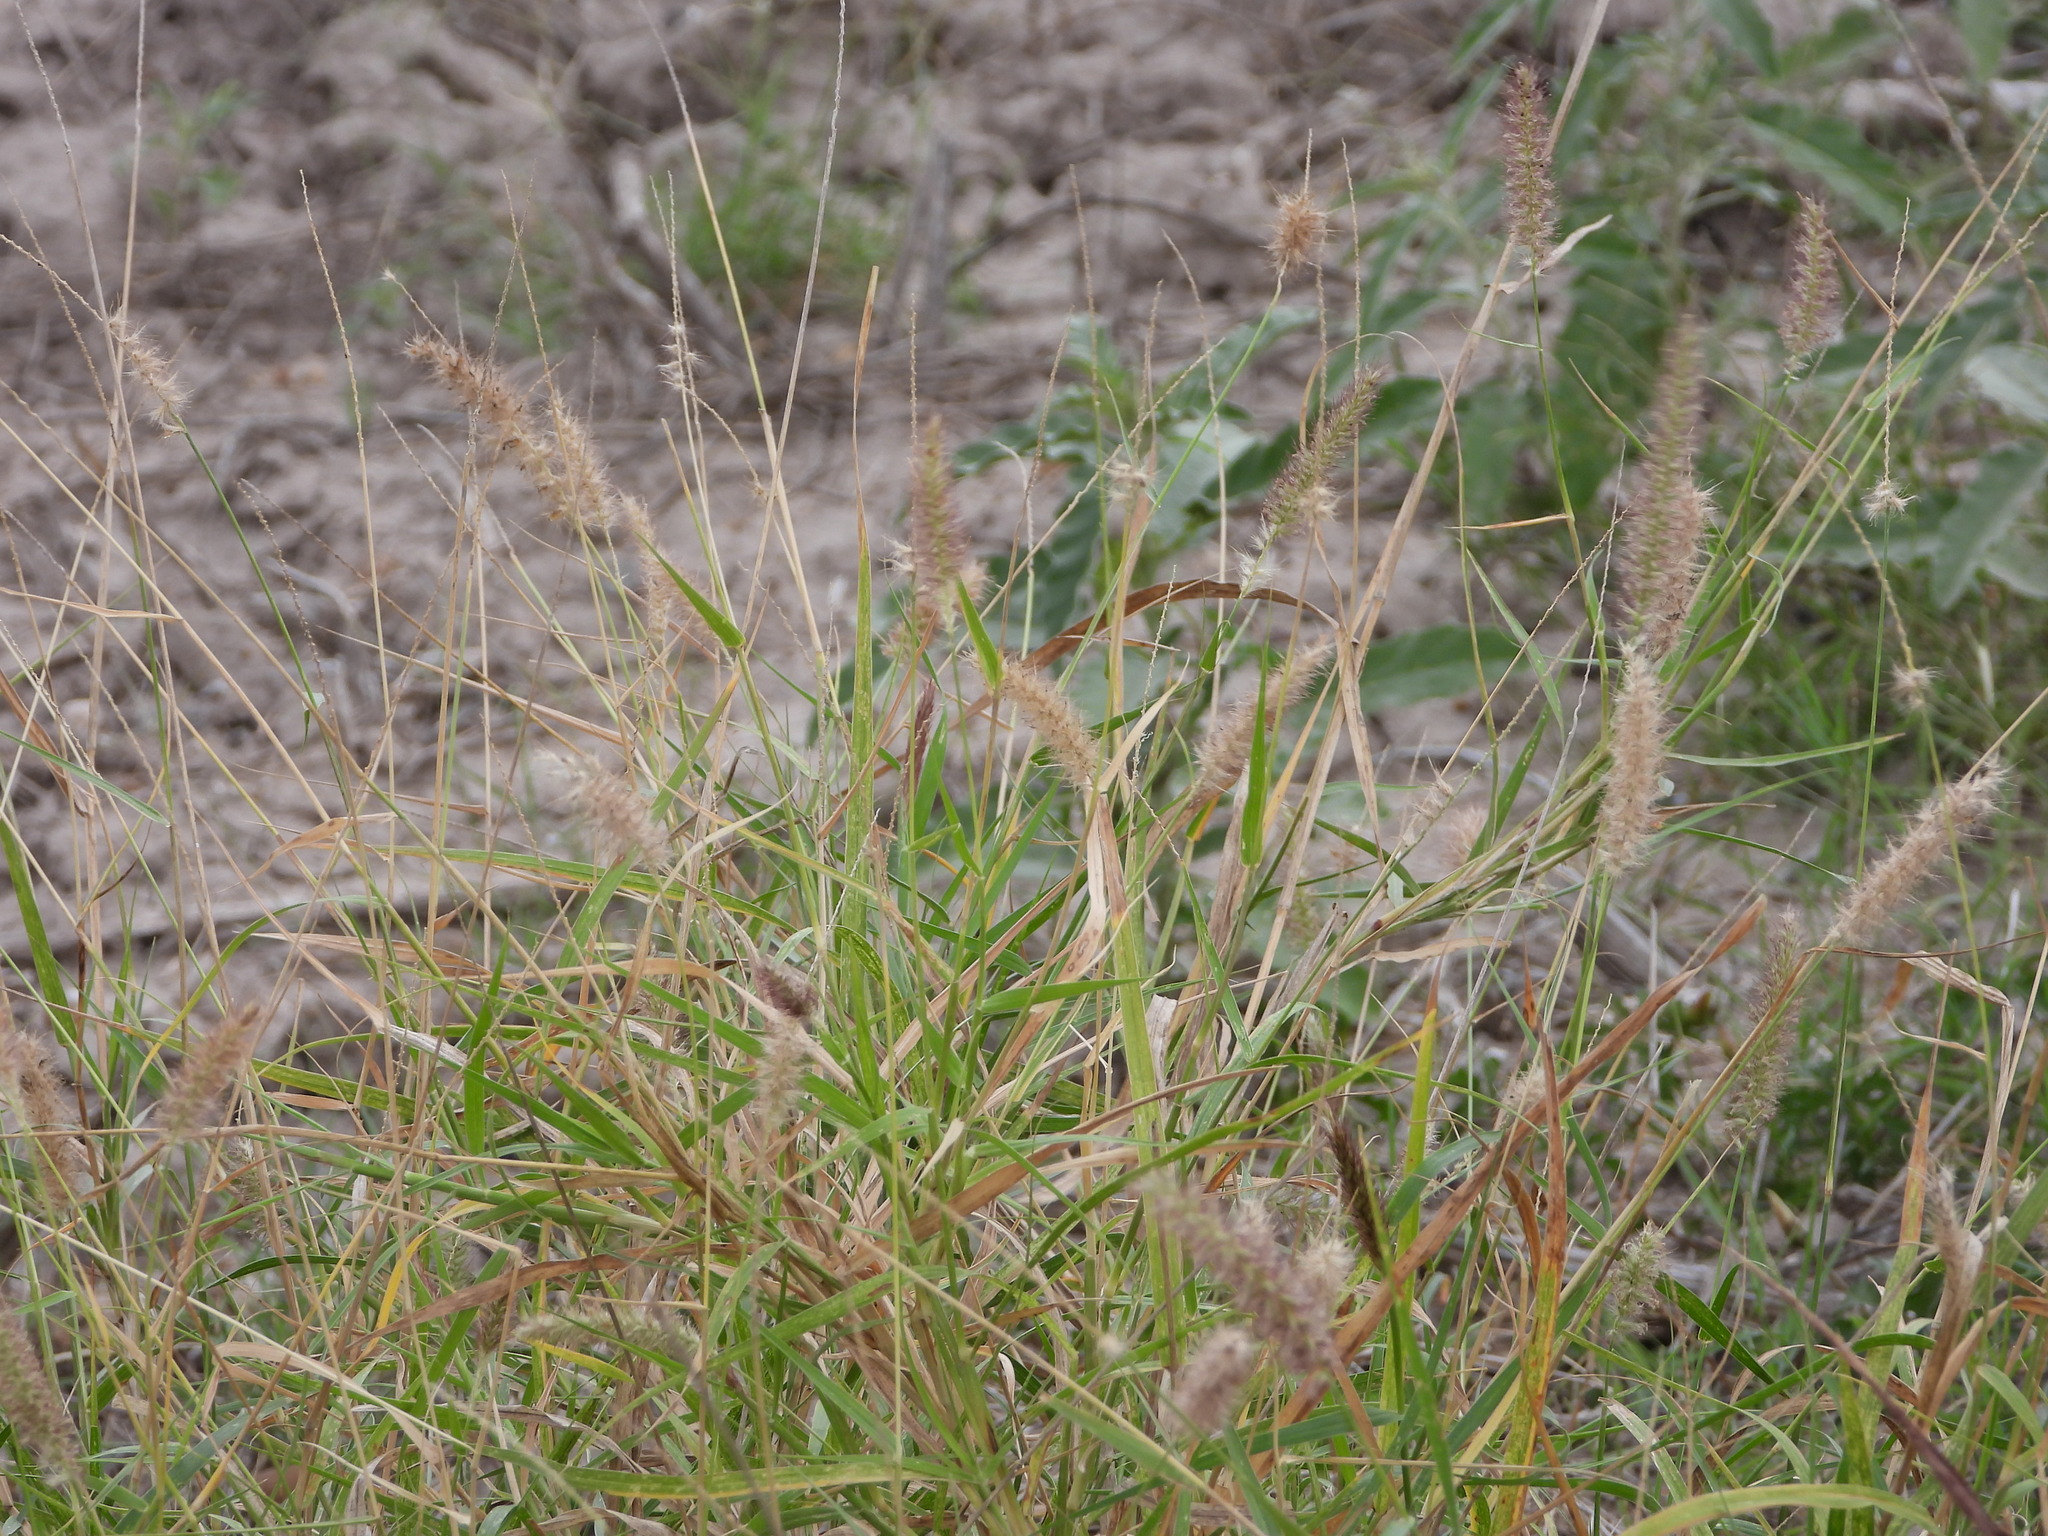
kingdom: Plantae
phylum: Tracheophyta
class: Liliopsida
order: Poales
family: Poaceae
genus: Cenchrus
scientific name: Cenchrus ciliaris
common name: Buffelgrass
